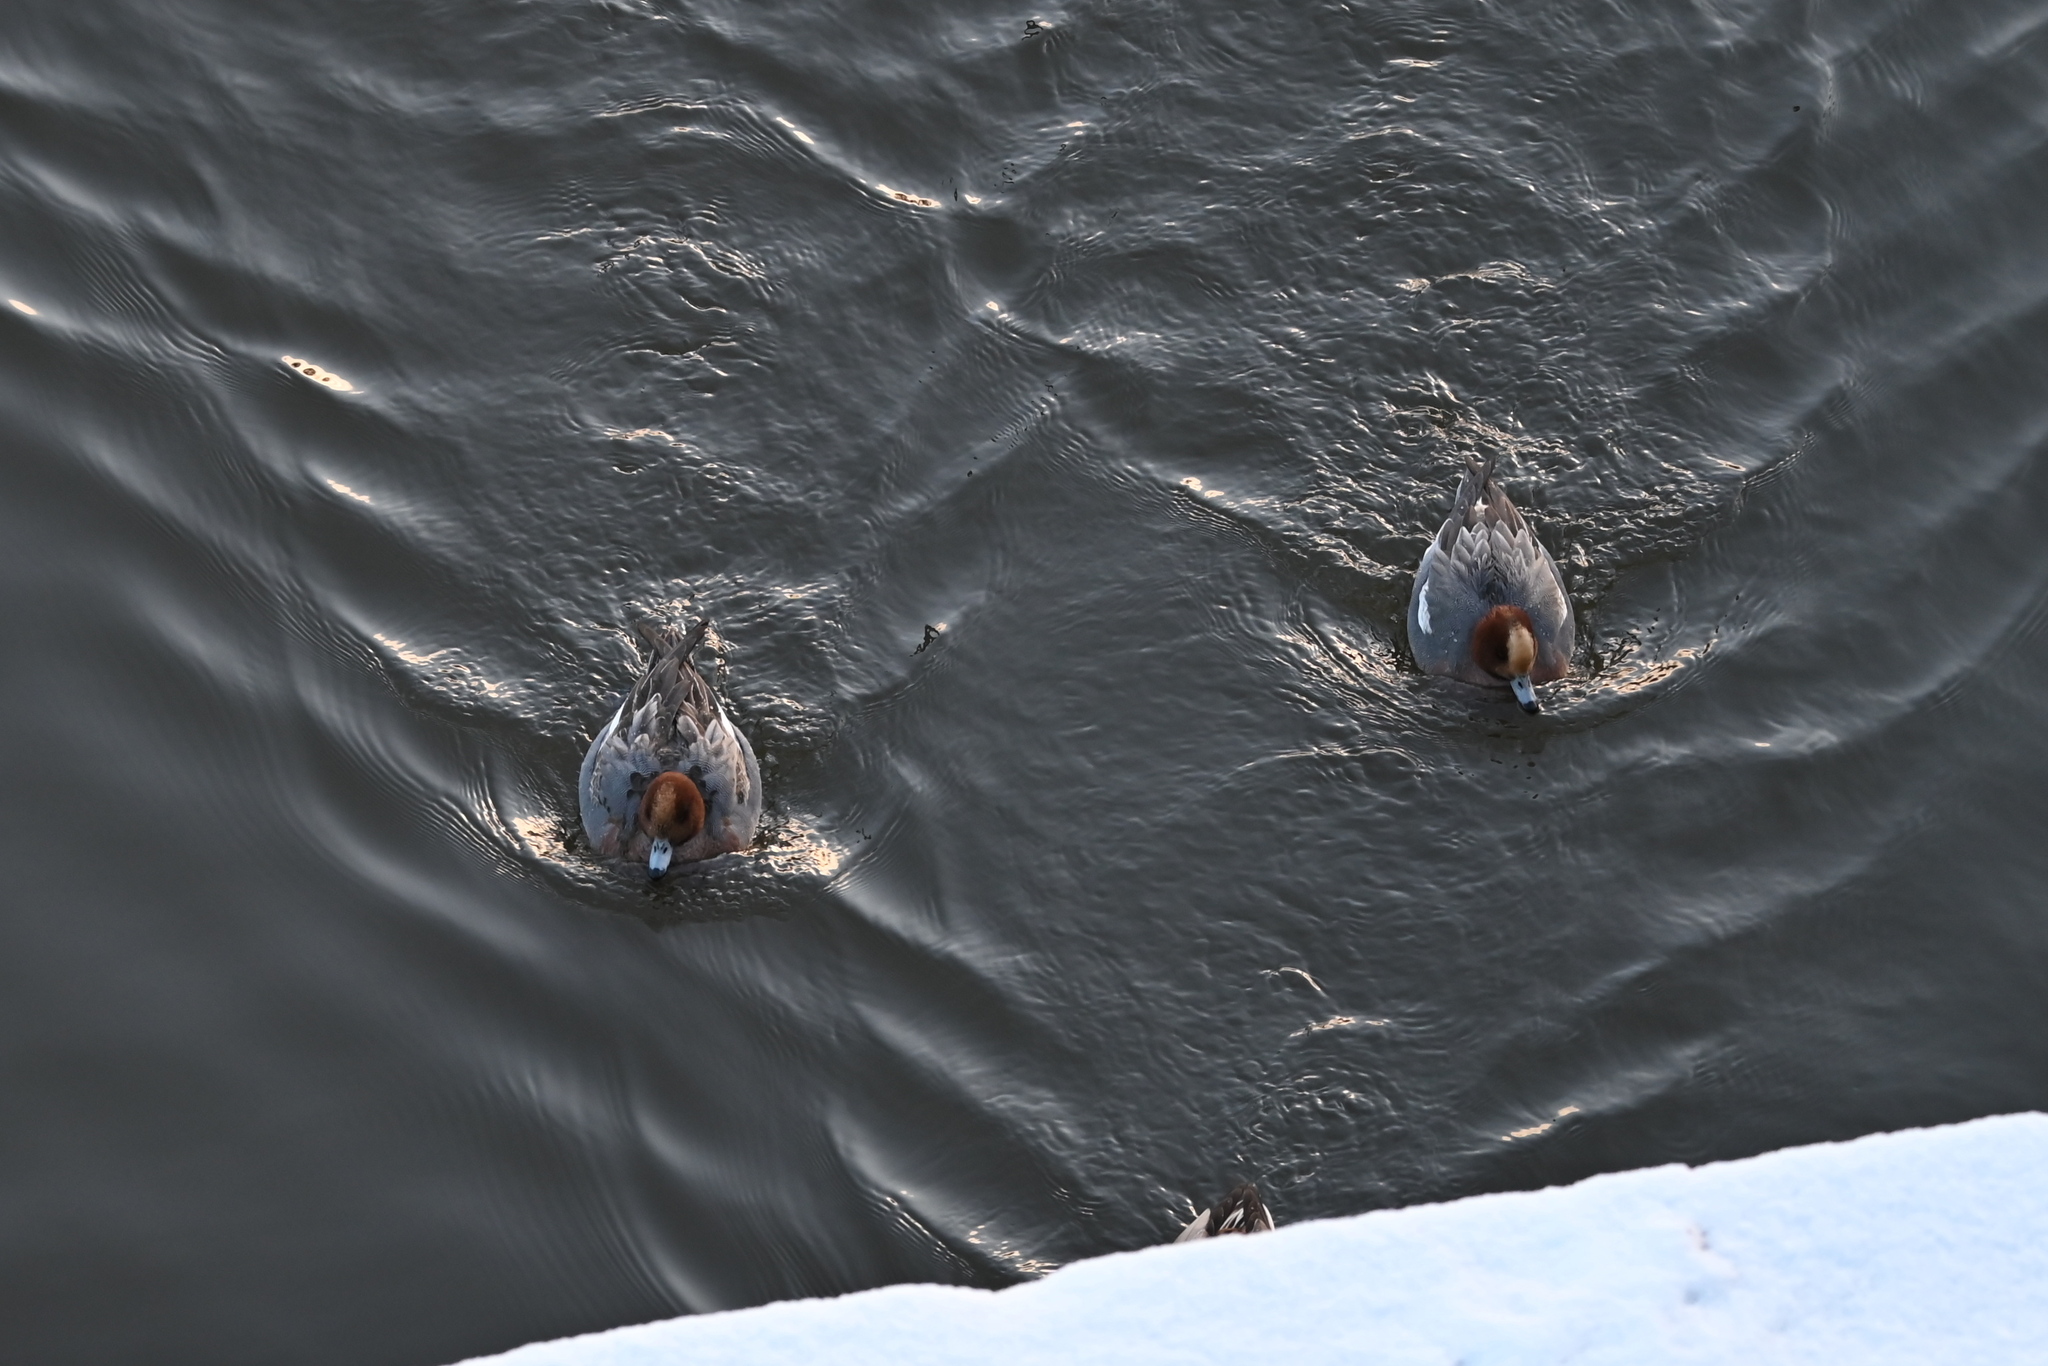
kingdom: Animalia
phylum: Chordata
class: Aves
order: Anseriformes
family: Anatidae
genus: Mareca
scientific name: Mareca penelope
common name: Eurasian wigeon
